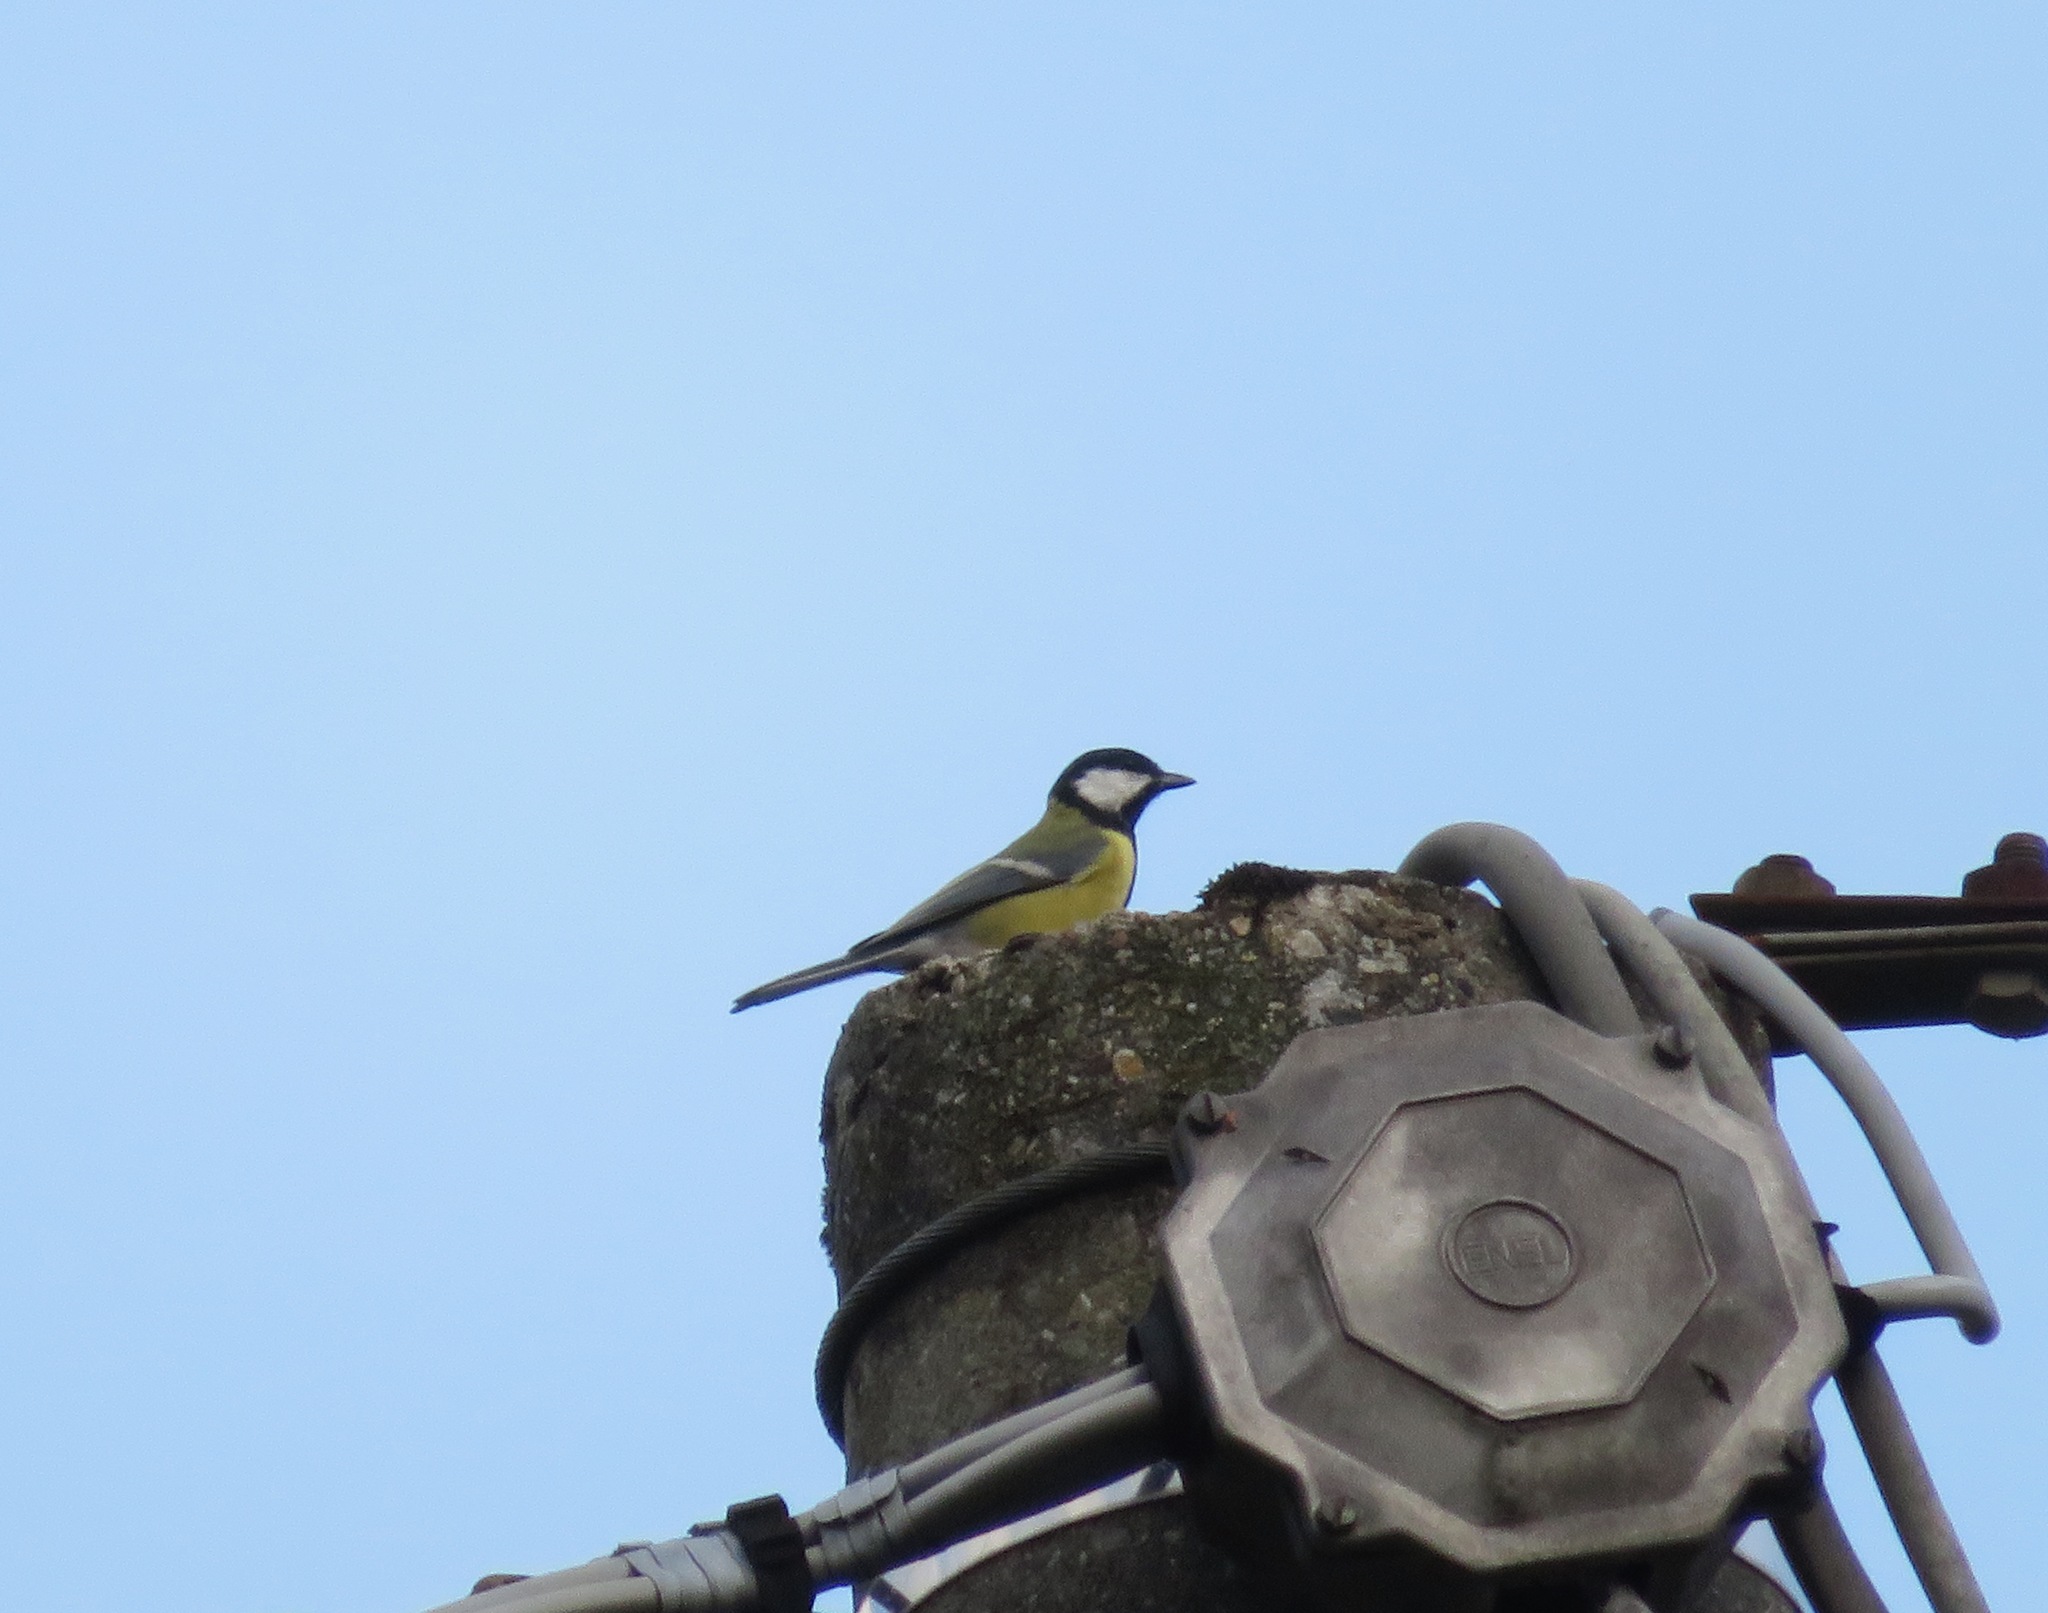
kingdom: Animalia
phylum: Chordata
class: Aves
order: Passeriformes
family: Paridae
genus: Parus
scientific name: Parus major
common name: Great tit
